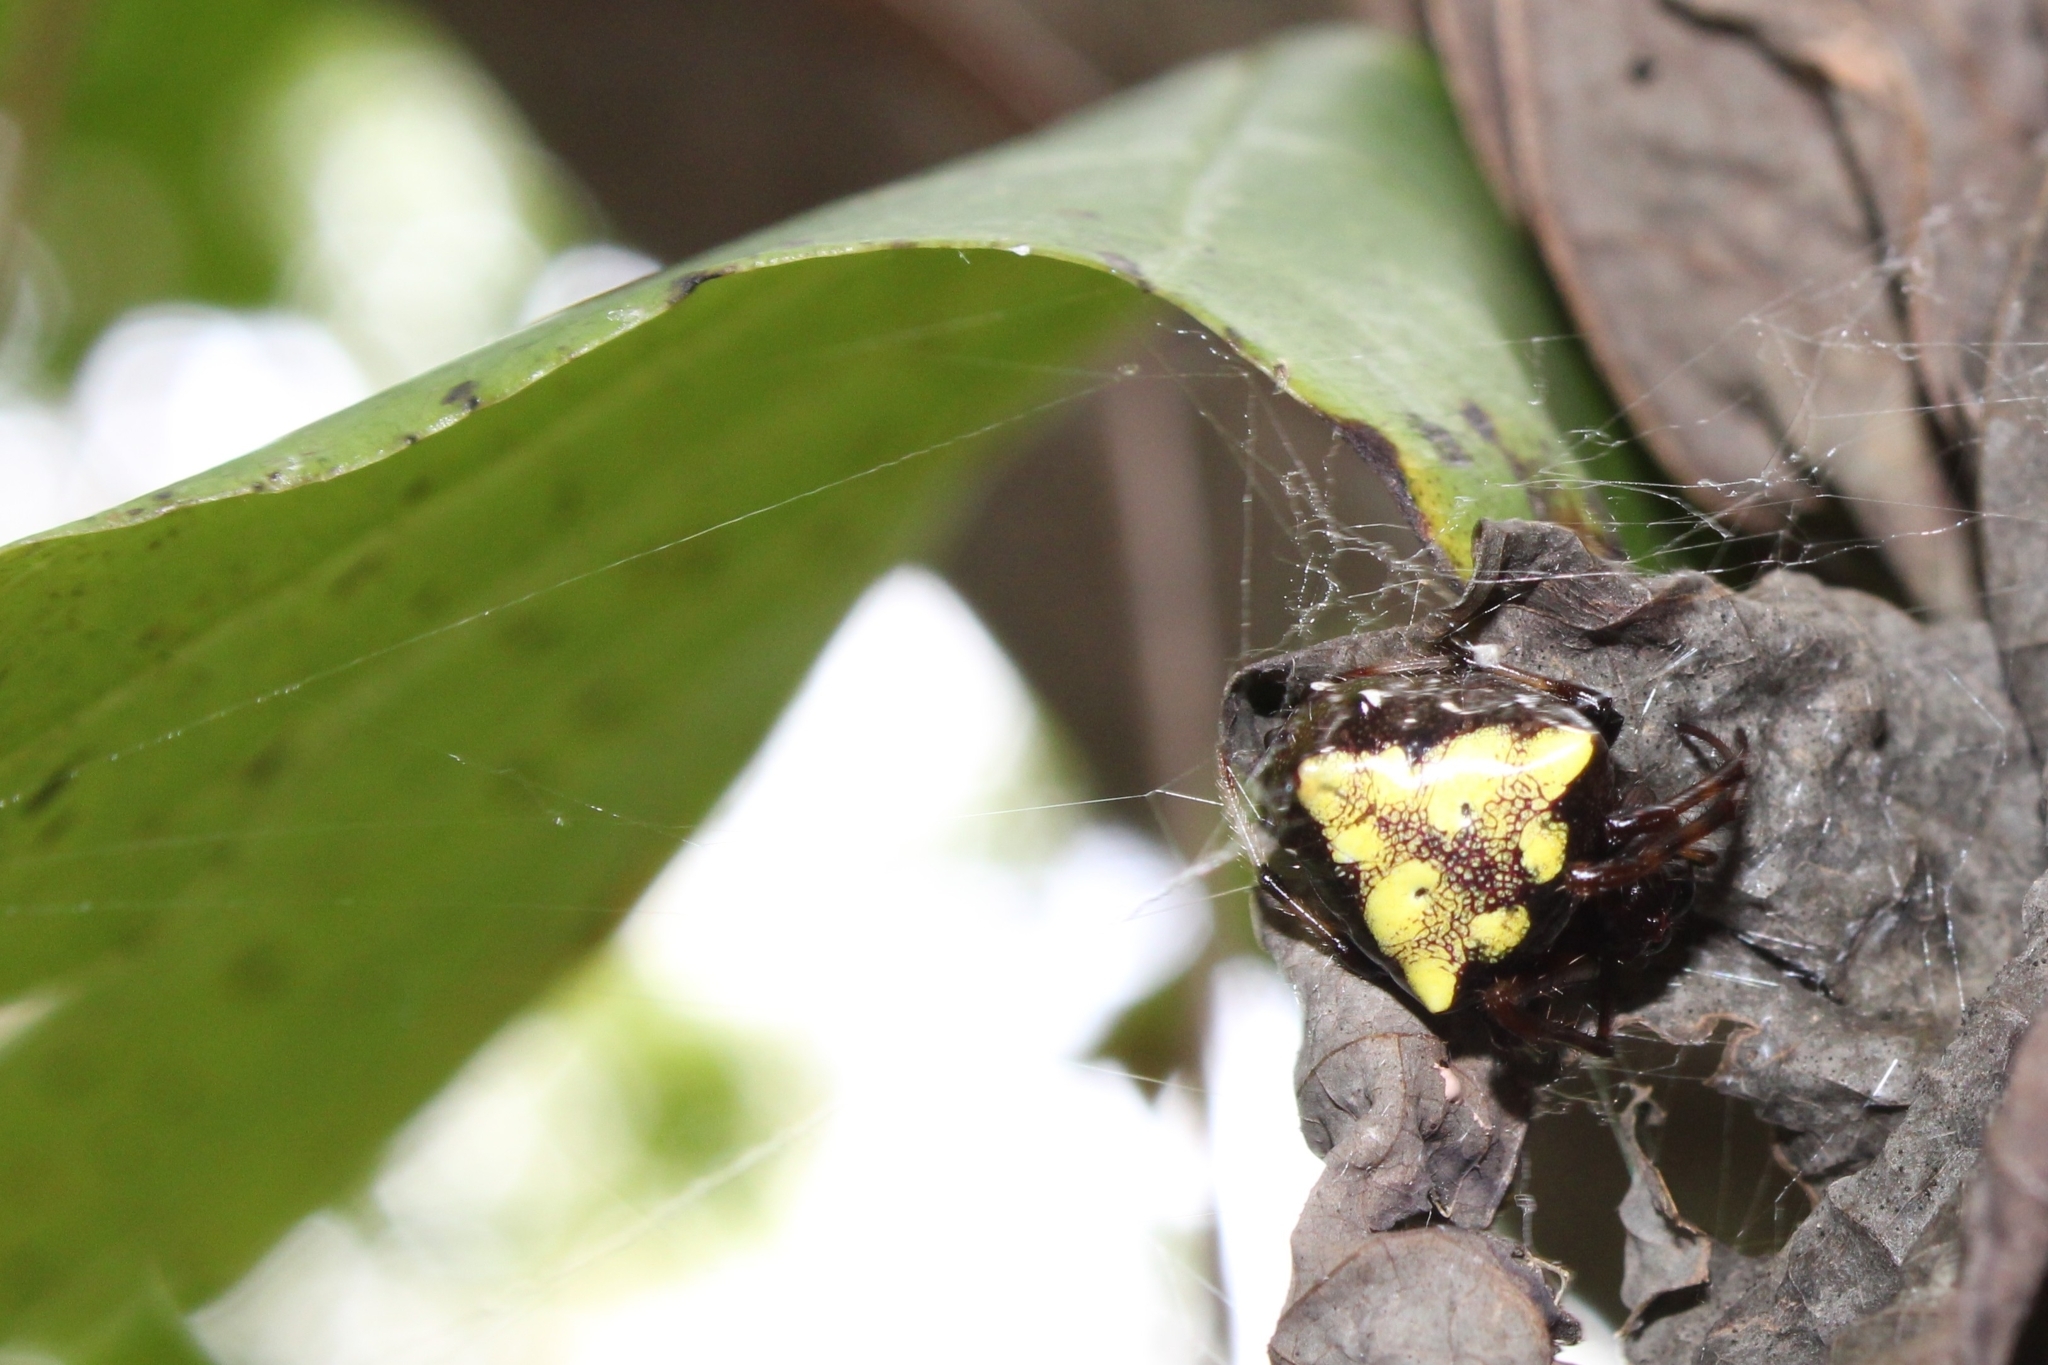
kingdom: Animalia
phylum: Arthropoda
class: Arachnida
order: Araneae
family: Araneidae
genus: Verrucosa
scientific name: Verrucosa arenata
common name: Orb weavers
